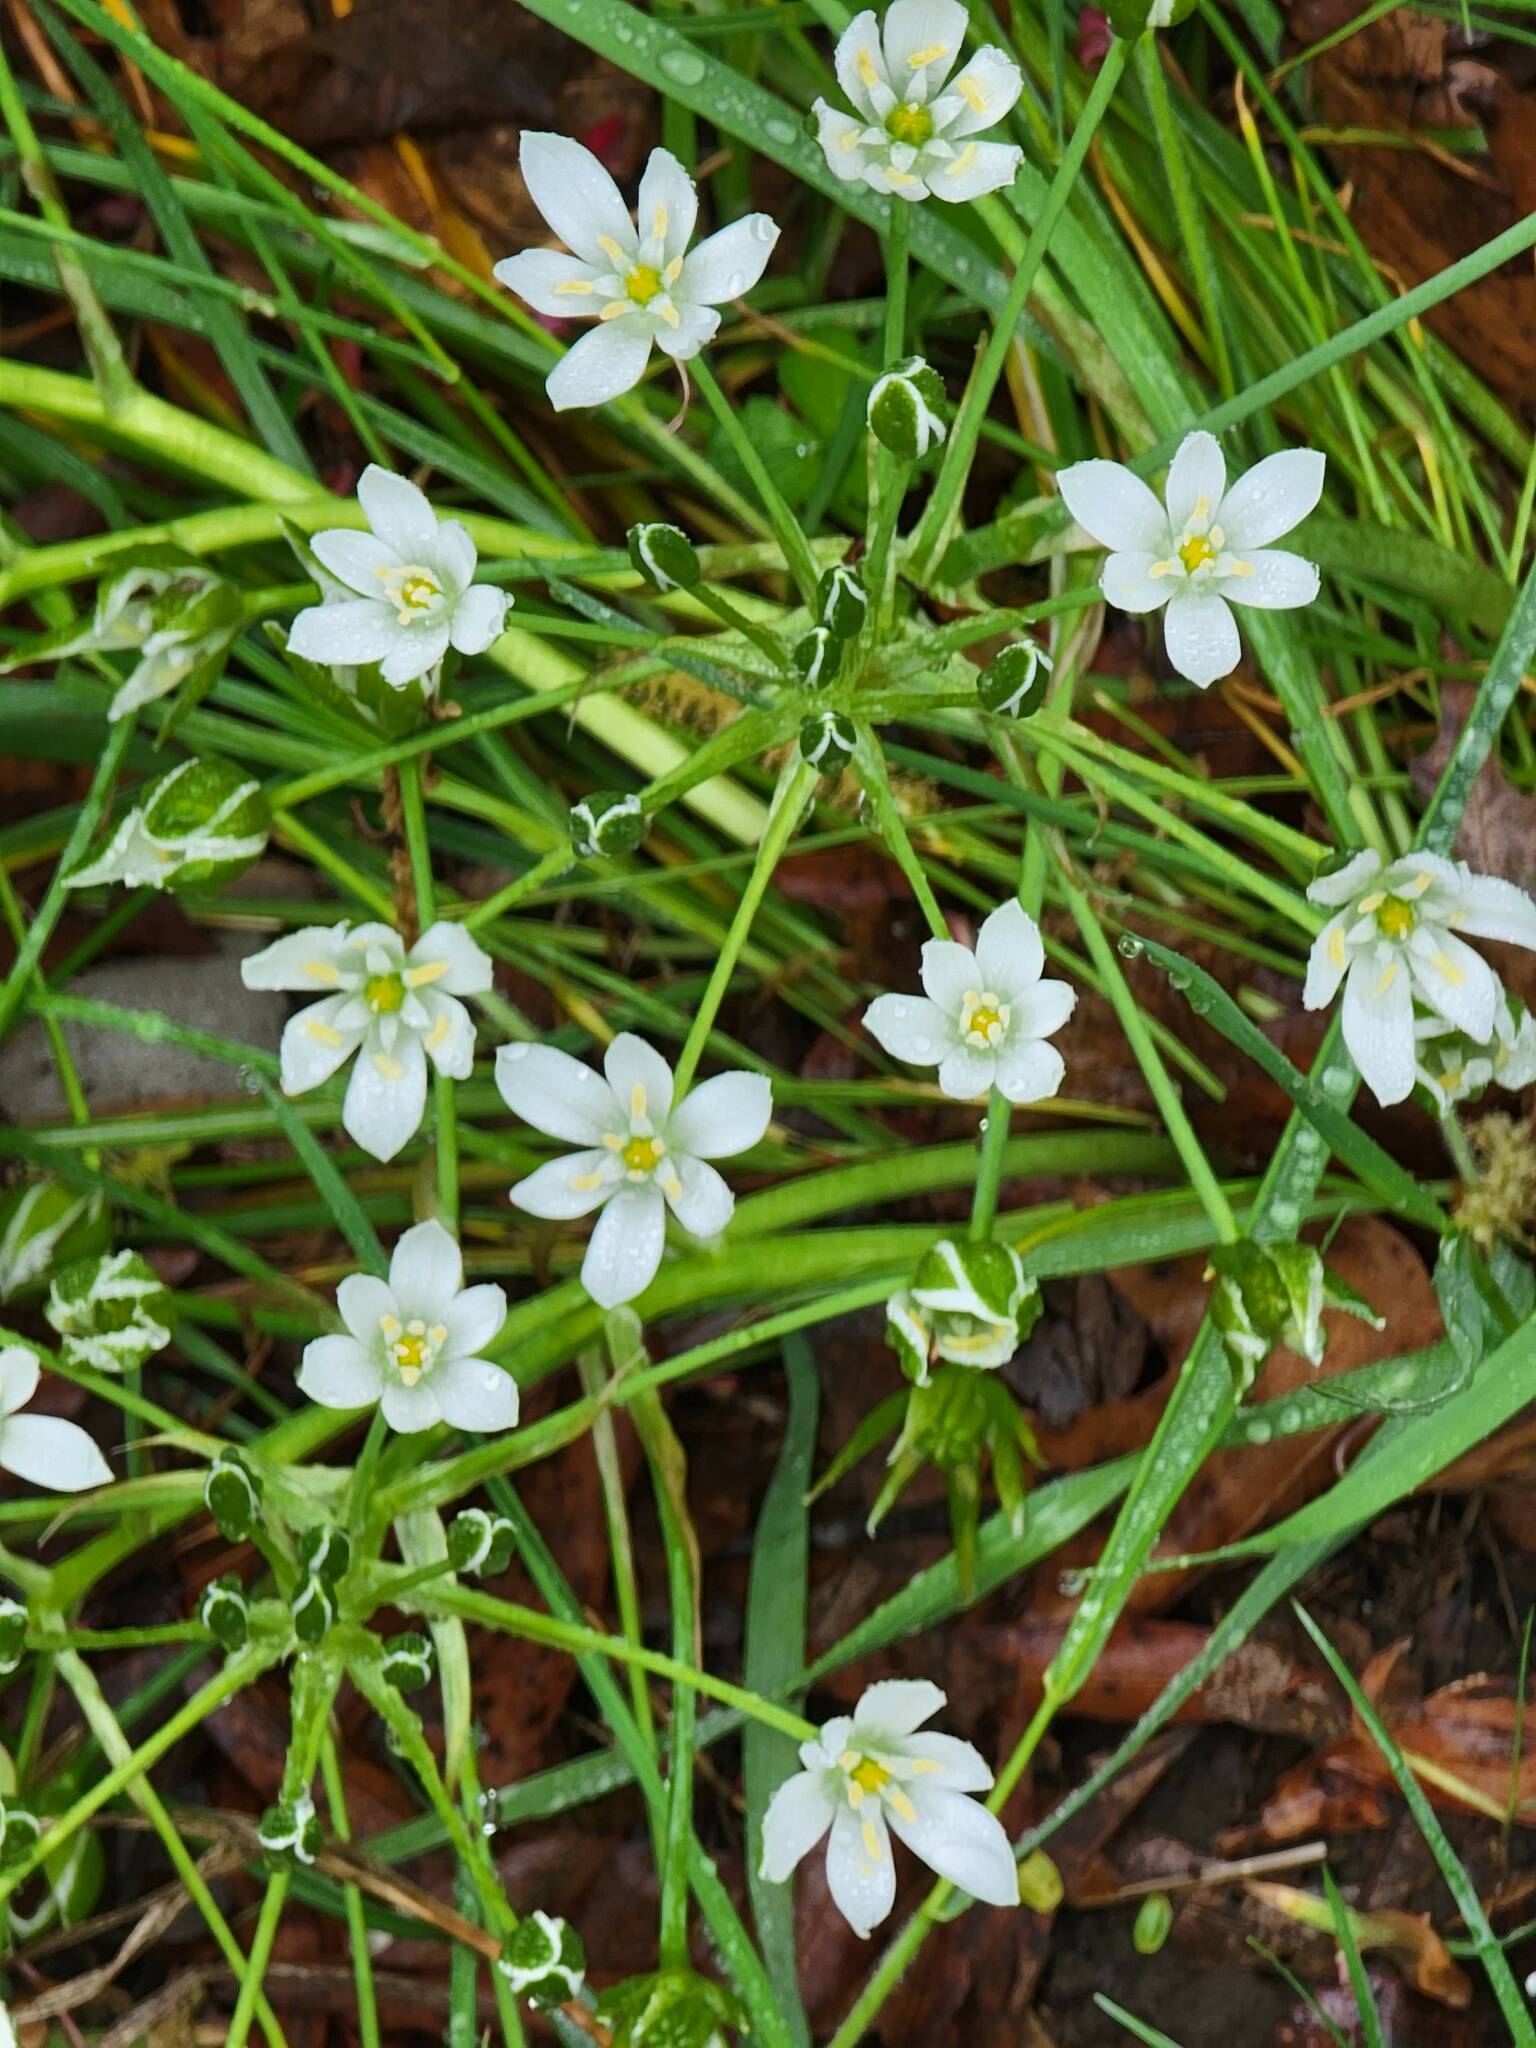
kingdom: Plantae
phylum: Tracheophyta
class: Liliopsida
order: Asparagales
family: Asparagaceae
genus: Ornithogalum
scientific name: Ornithogalum umbellatum
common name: Garden star-of-bethlehem
